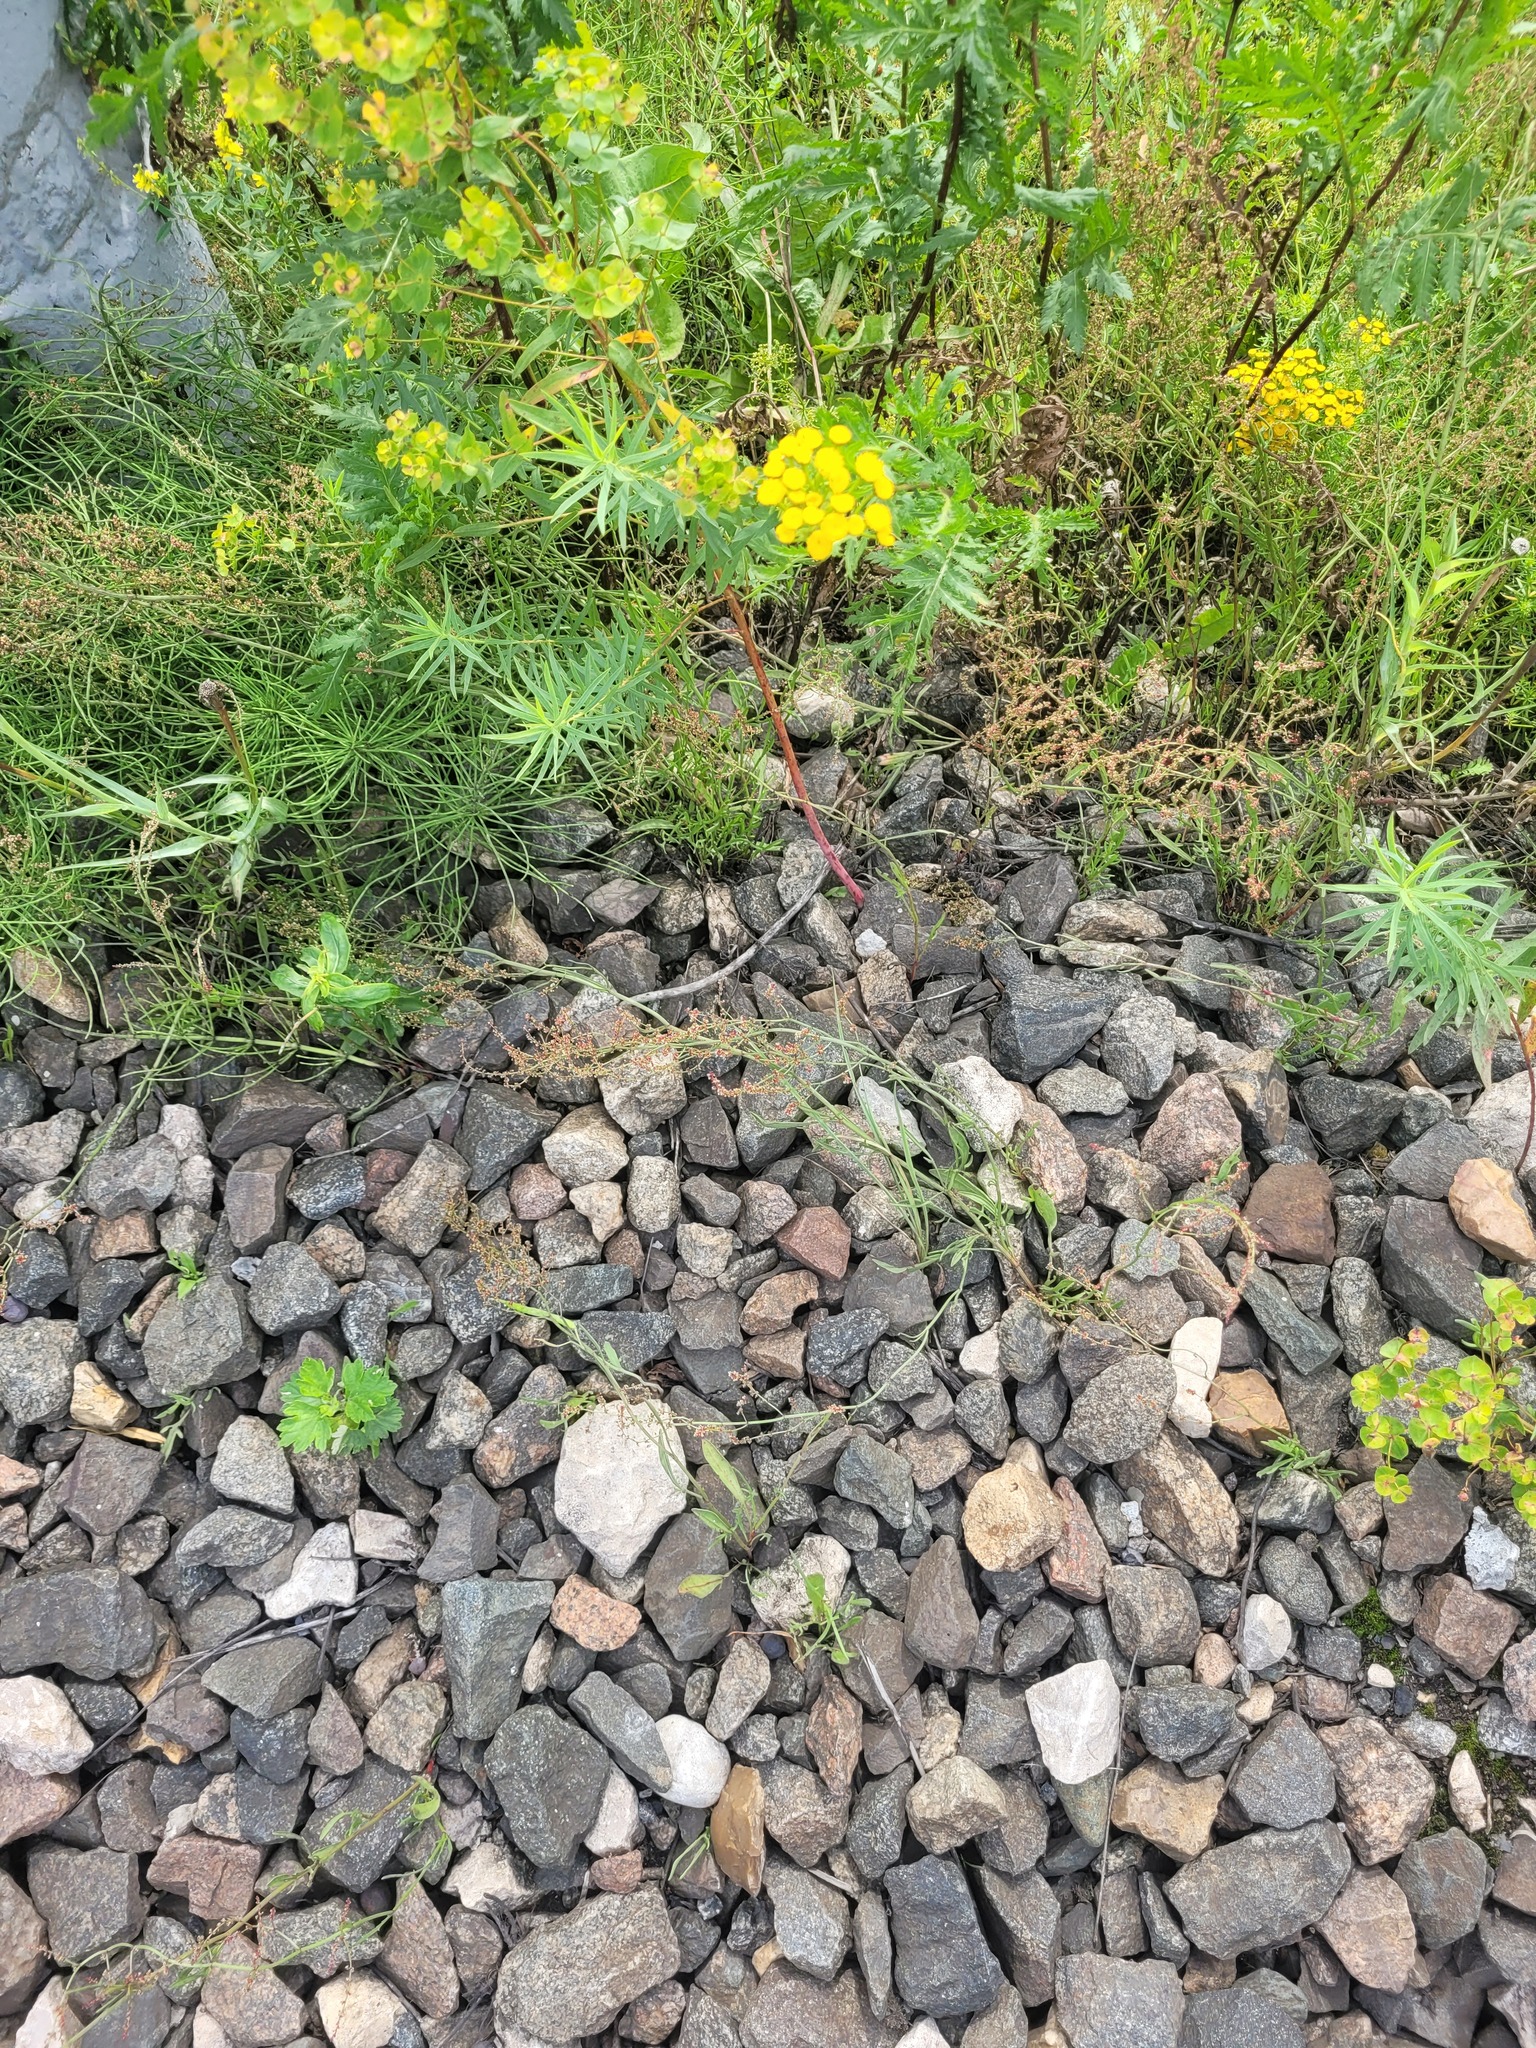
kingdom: Plantae
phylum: Tracheophyta
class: Magnoliopsida
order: Caryophyllales
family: Polygonaceae
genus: Rumex
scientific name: Rumex acetosella
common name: Common sheep sorrel
